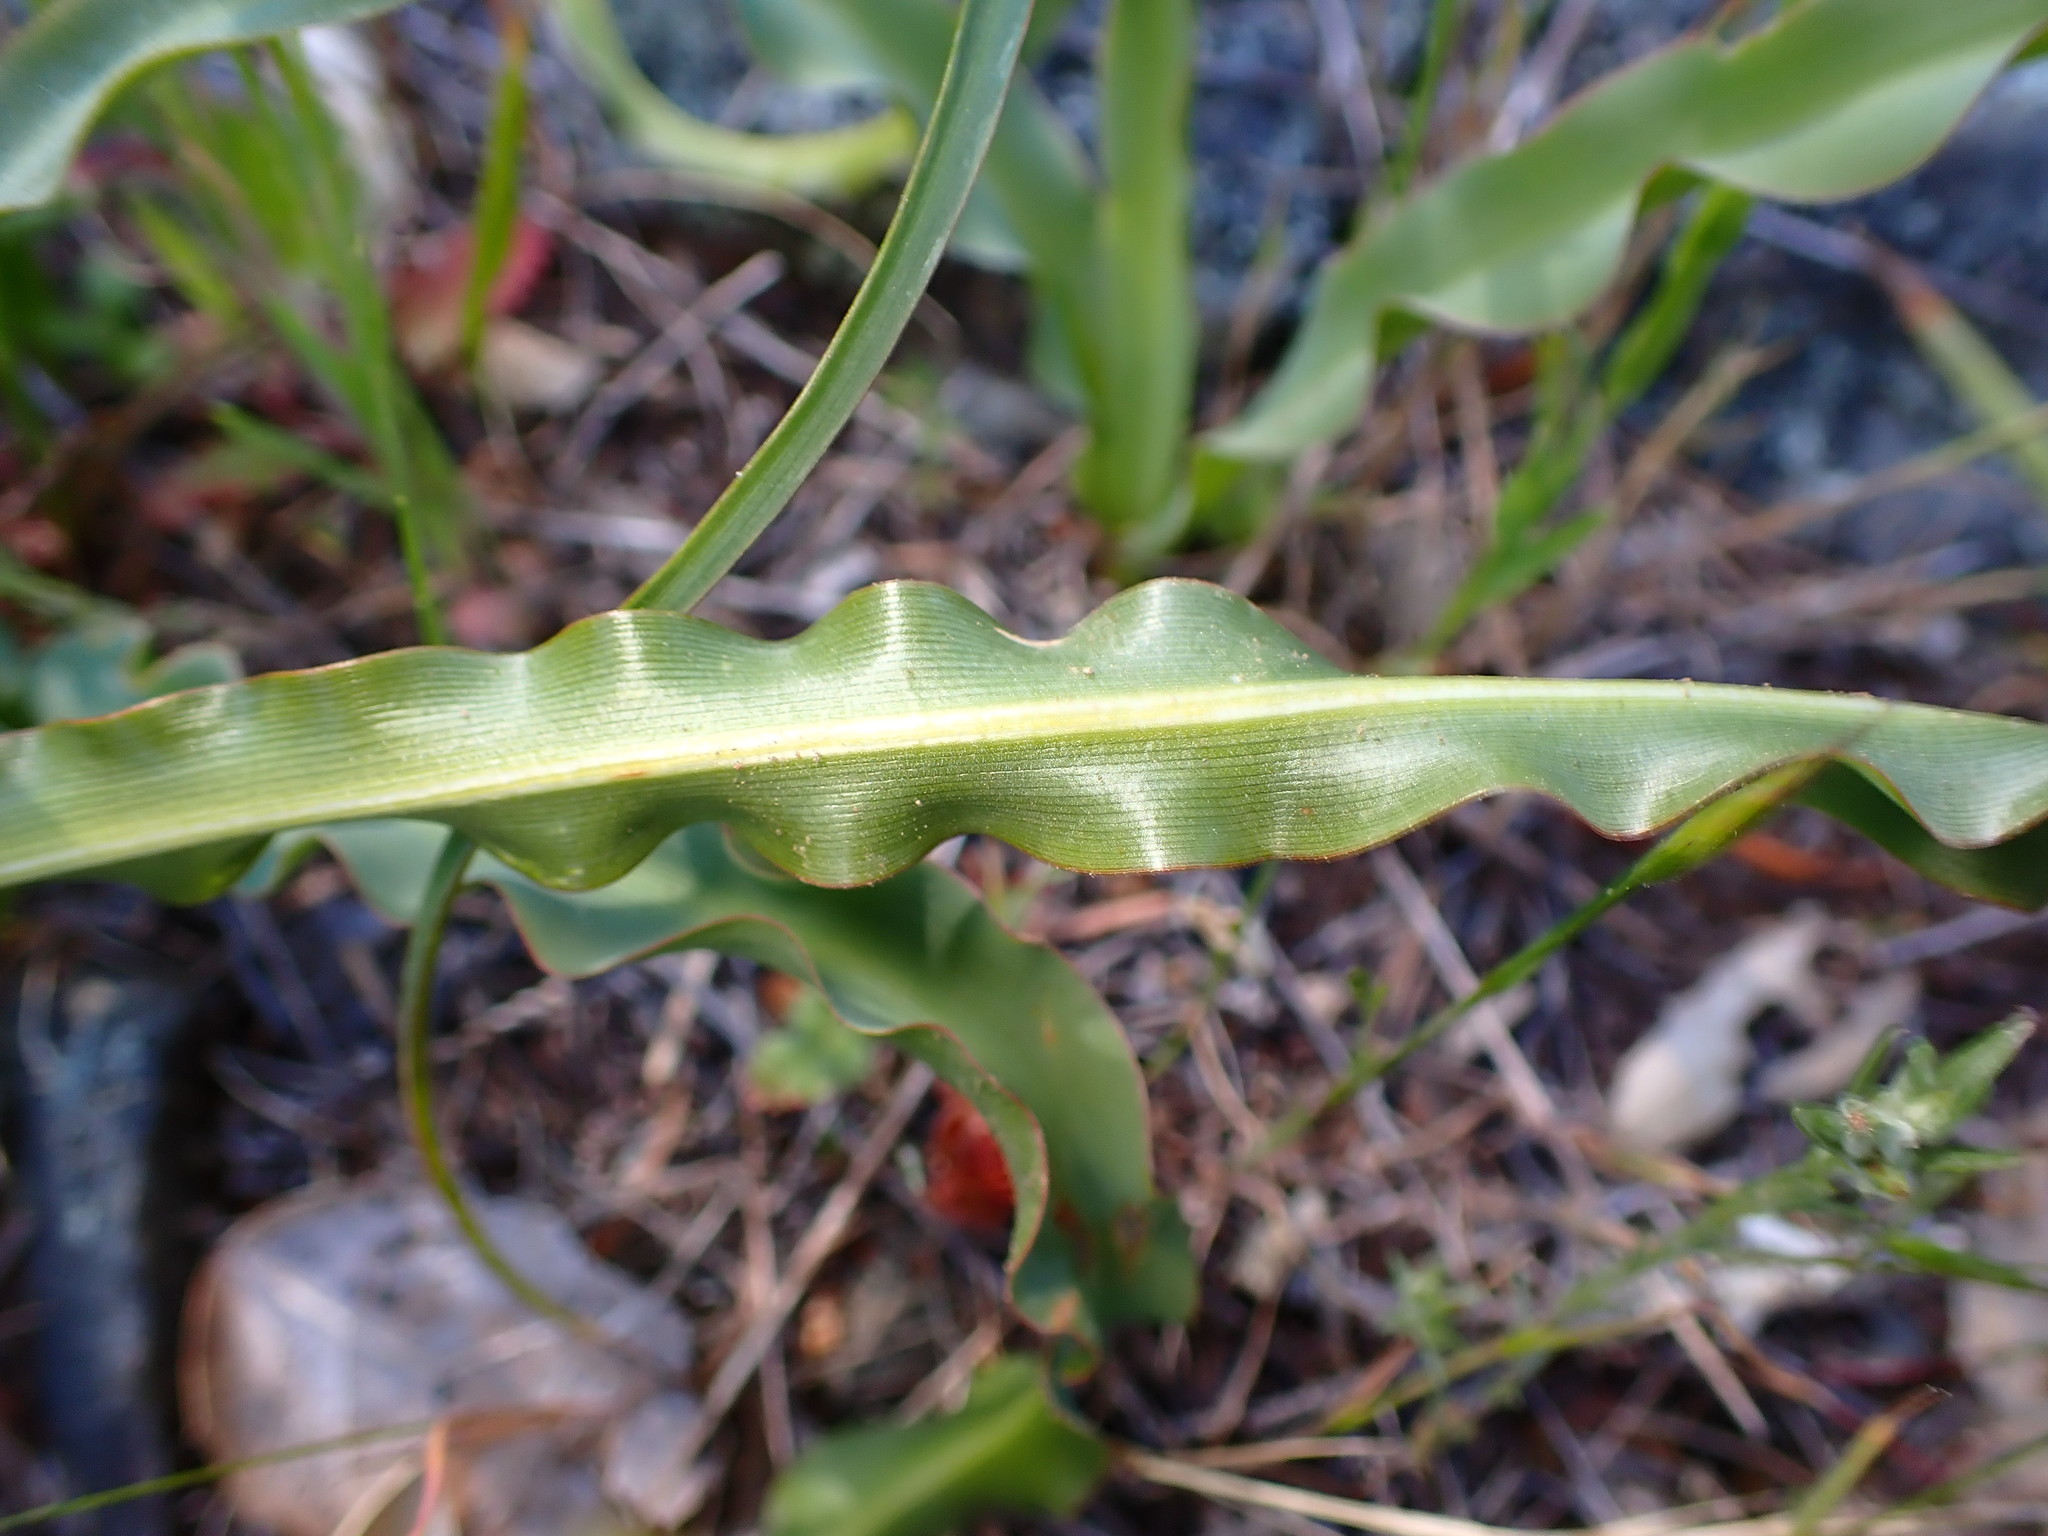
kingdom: Plantae
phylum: Tracheophyta
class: Liliopsida
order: Asparagales
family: Asparagaceae
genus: Chlorogalum
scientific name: Chlorogalum pomeridianum
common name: Amole
